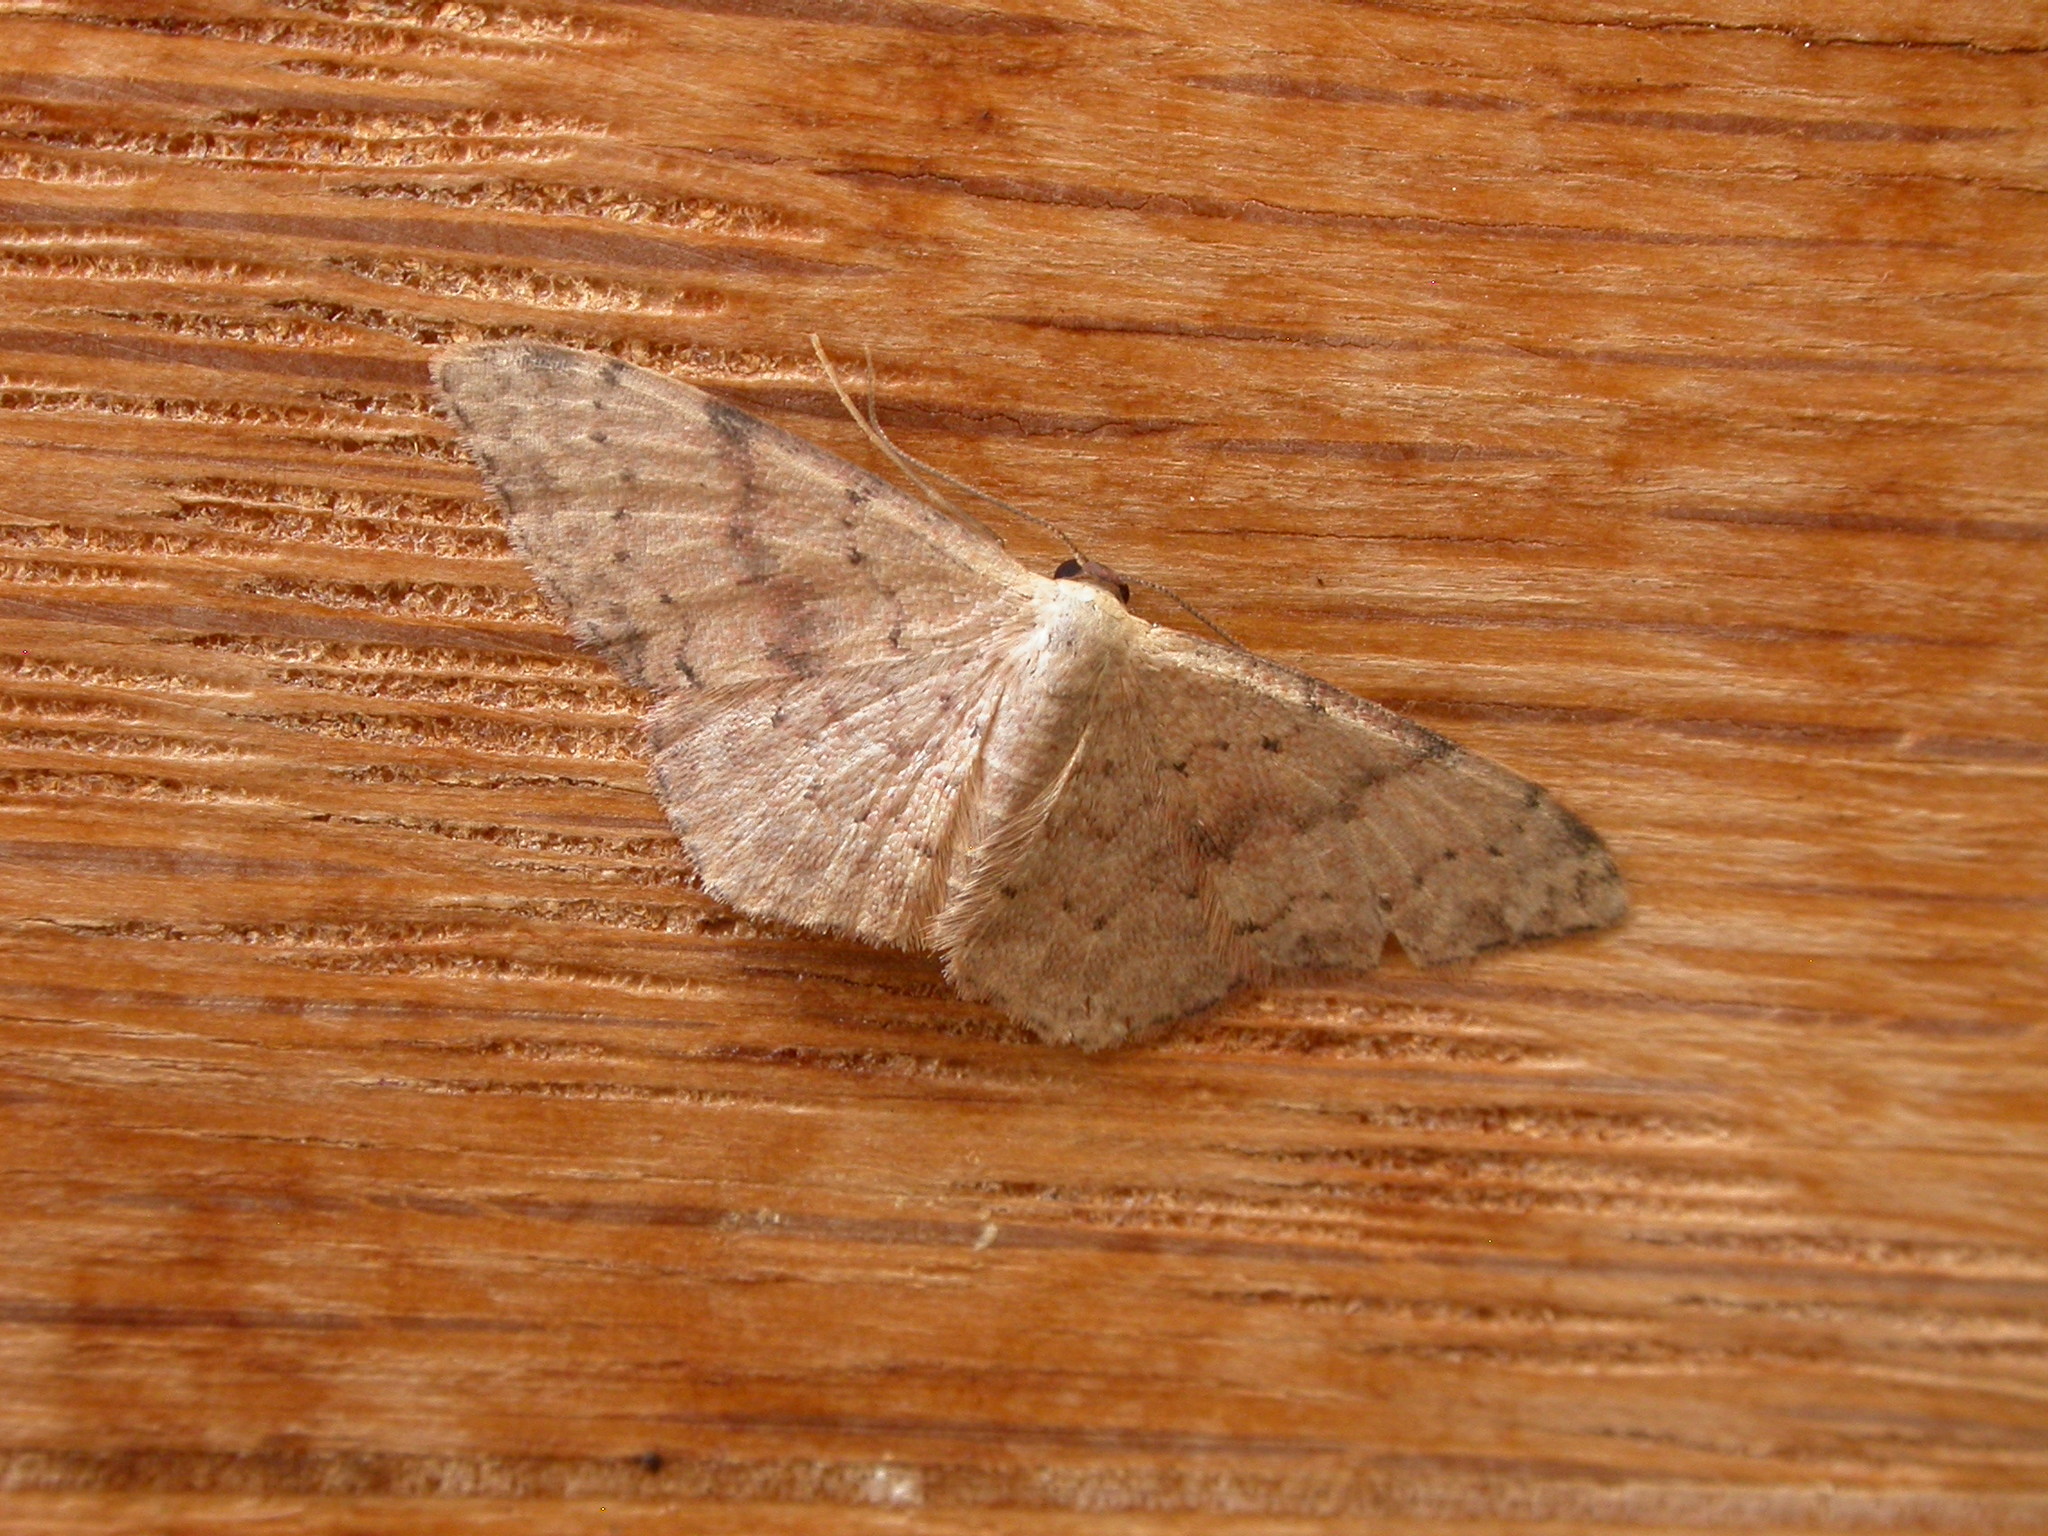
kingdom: Animalia
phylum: Arthropoda
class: Insecta
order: Lepidoptera
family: Geometridae
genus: Idaea
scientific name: Idaea halmaea
